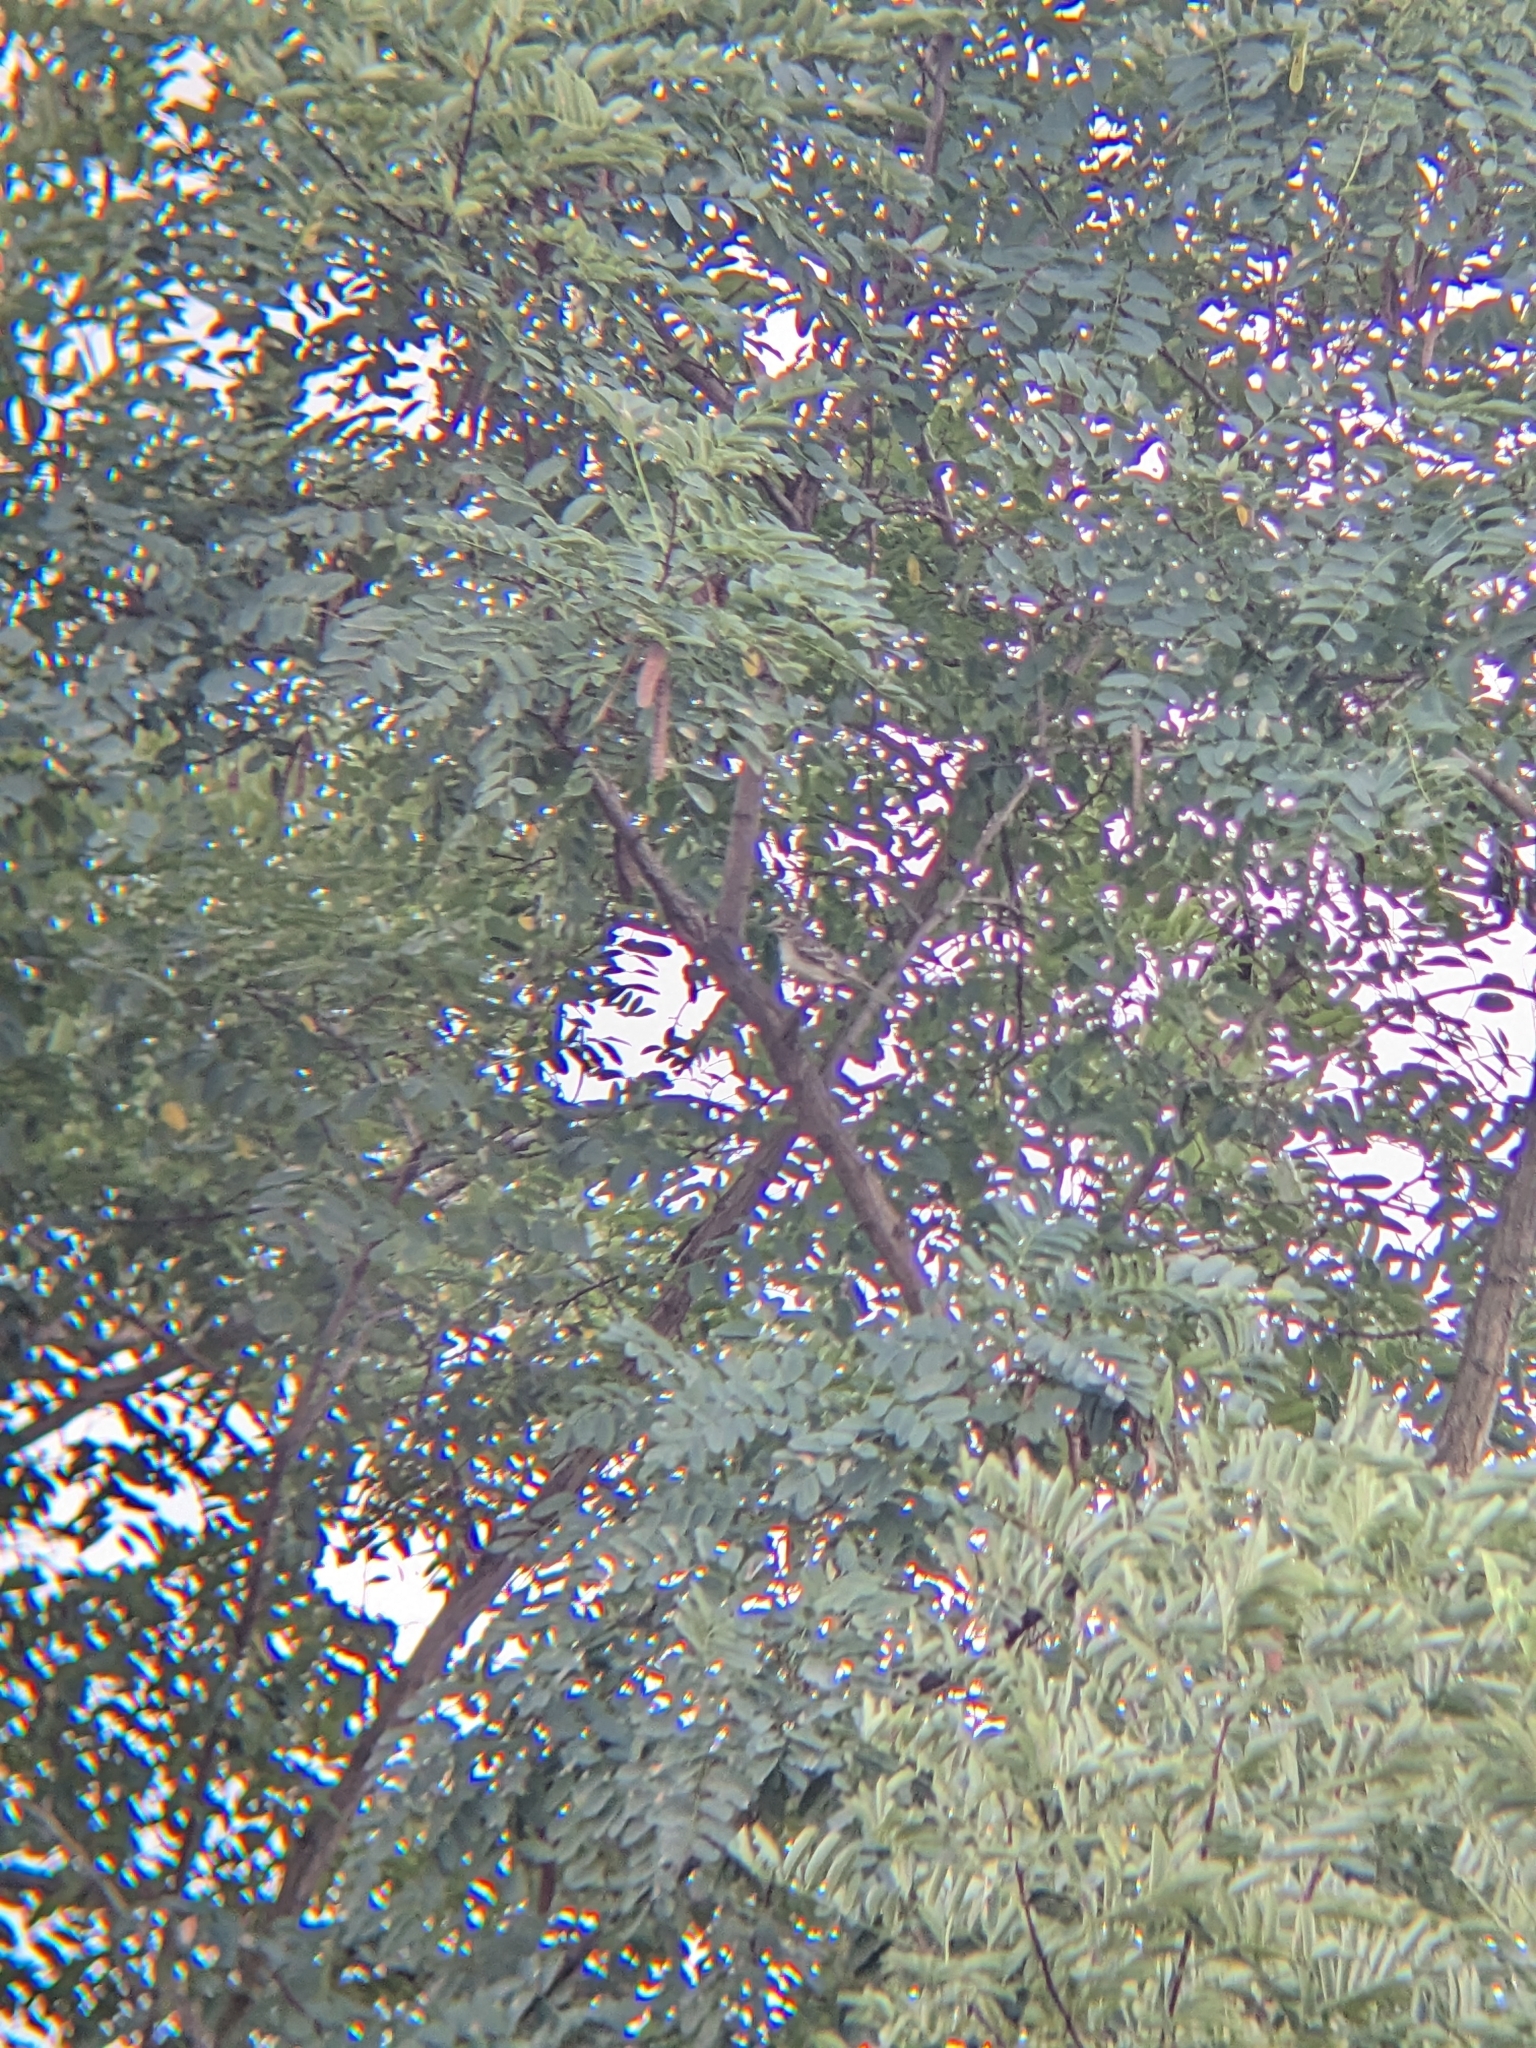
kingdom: Animalia
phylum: Chordata
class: Aves
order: Passeriformes
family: Passerellidae
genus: Chondestes
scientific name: Chondestes grammacus
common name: Lark sparrow
